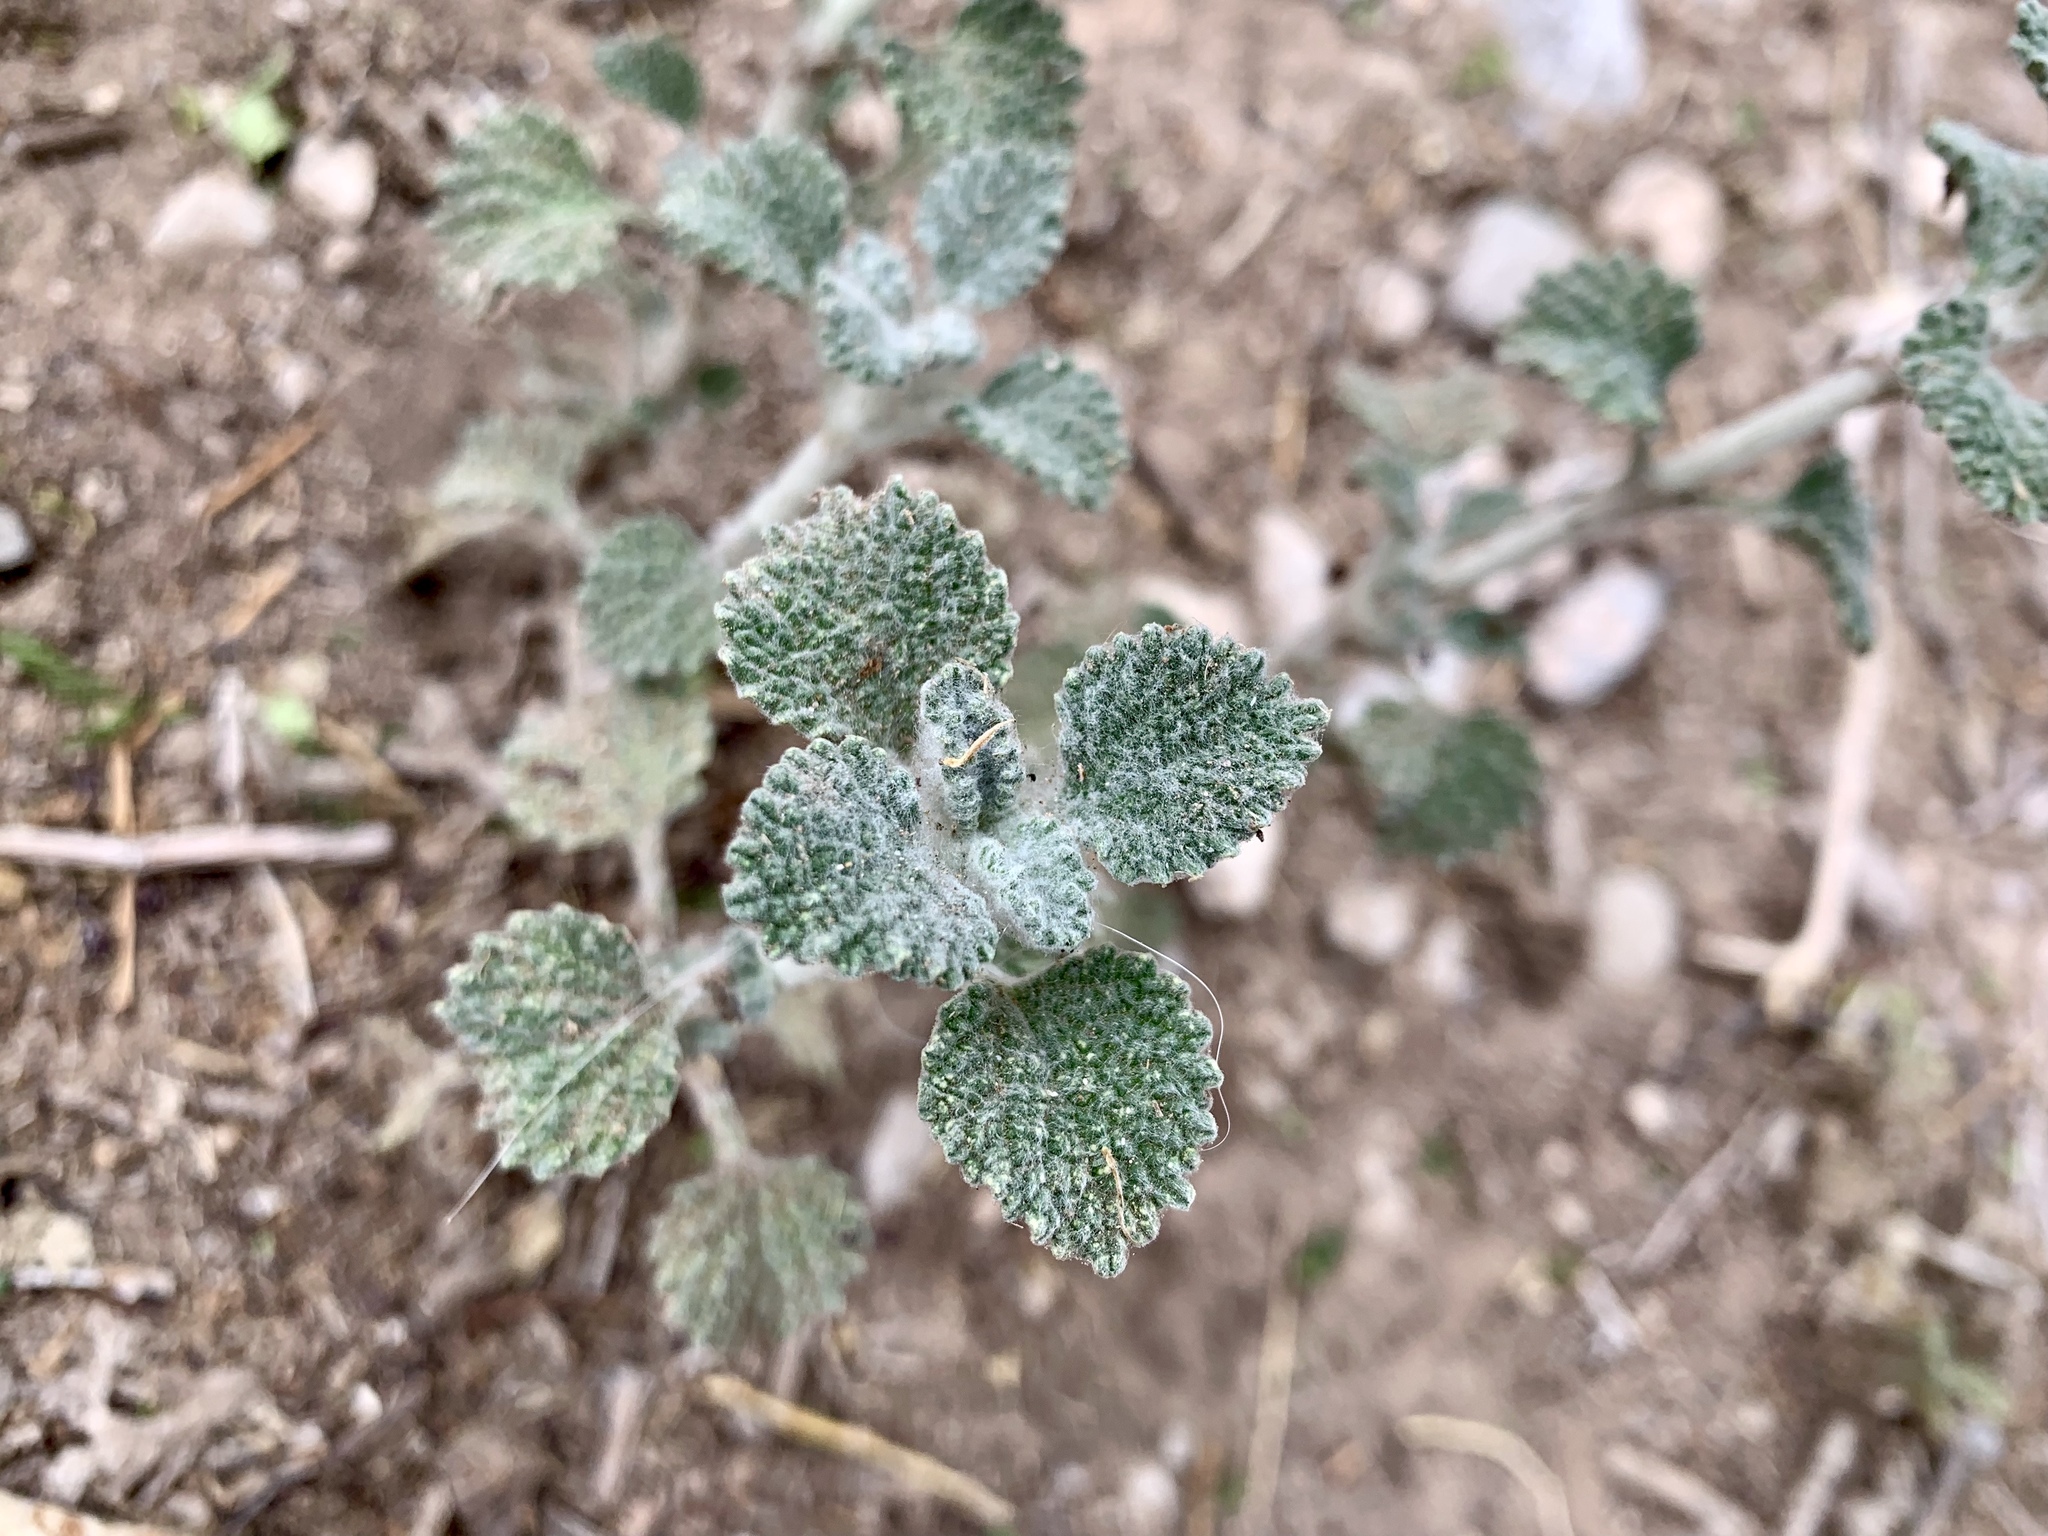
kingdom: Plantae
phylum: Tracheophyta
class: Magnoliopsida
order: Lamiales
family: Lamiaceae
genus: Marrubium
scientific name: Marrubium vulgare
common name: Horehound
